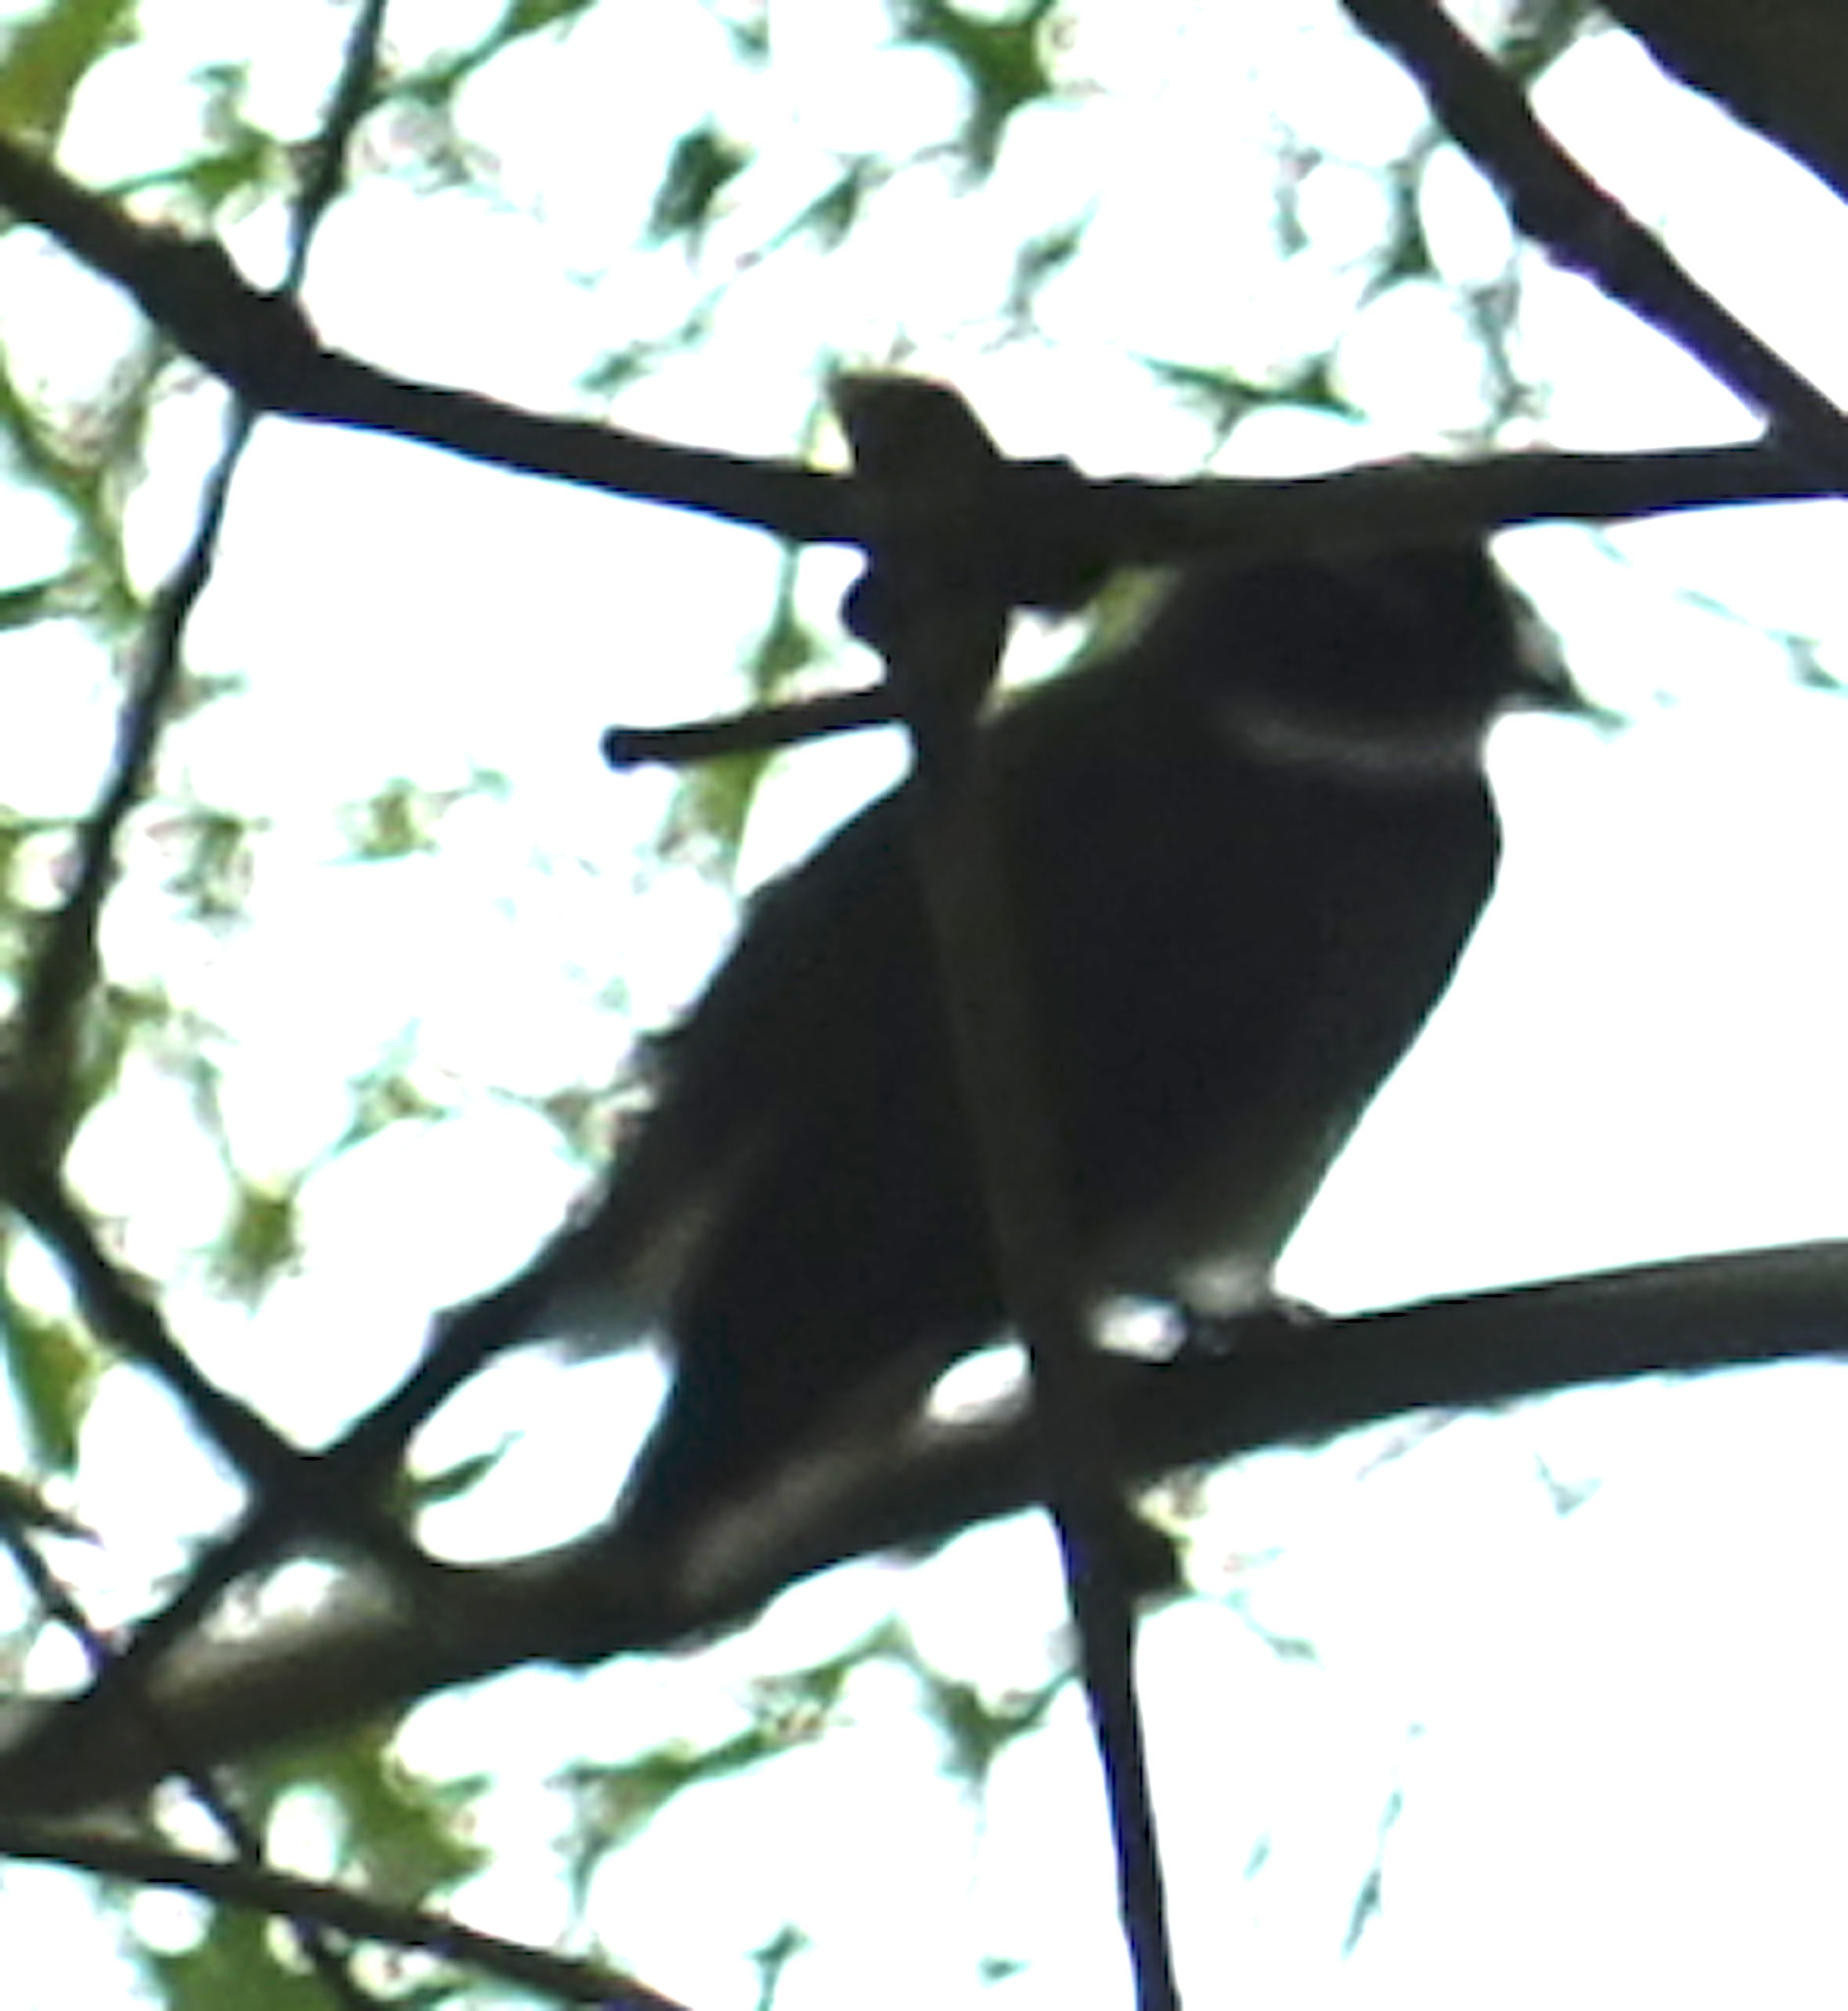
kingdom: Animalia
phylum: Chordata
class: Aves
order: Passeriformes
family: Rhipiduridae
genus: Rhipidura
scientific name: Rhipidura javanica
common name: Pied fantail
